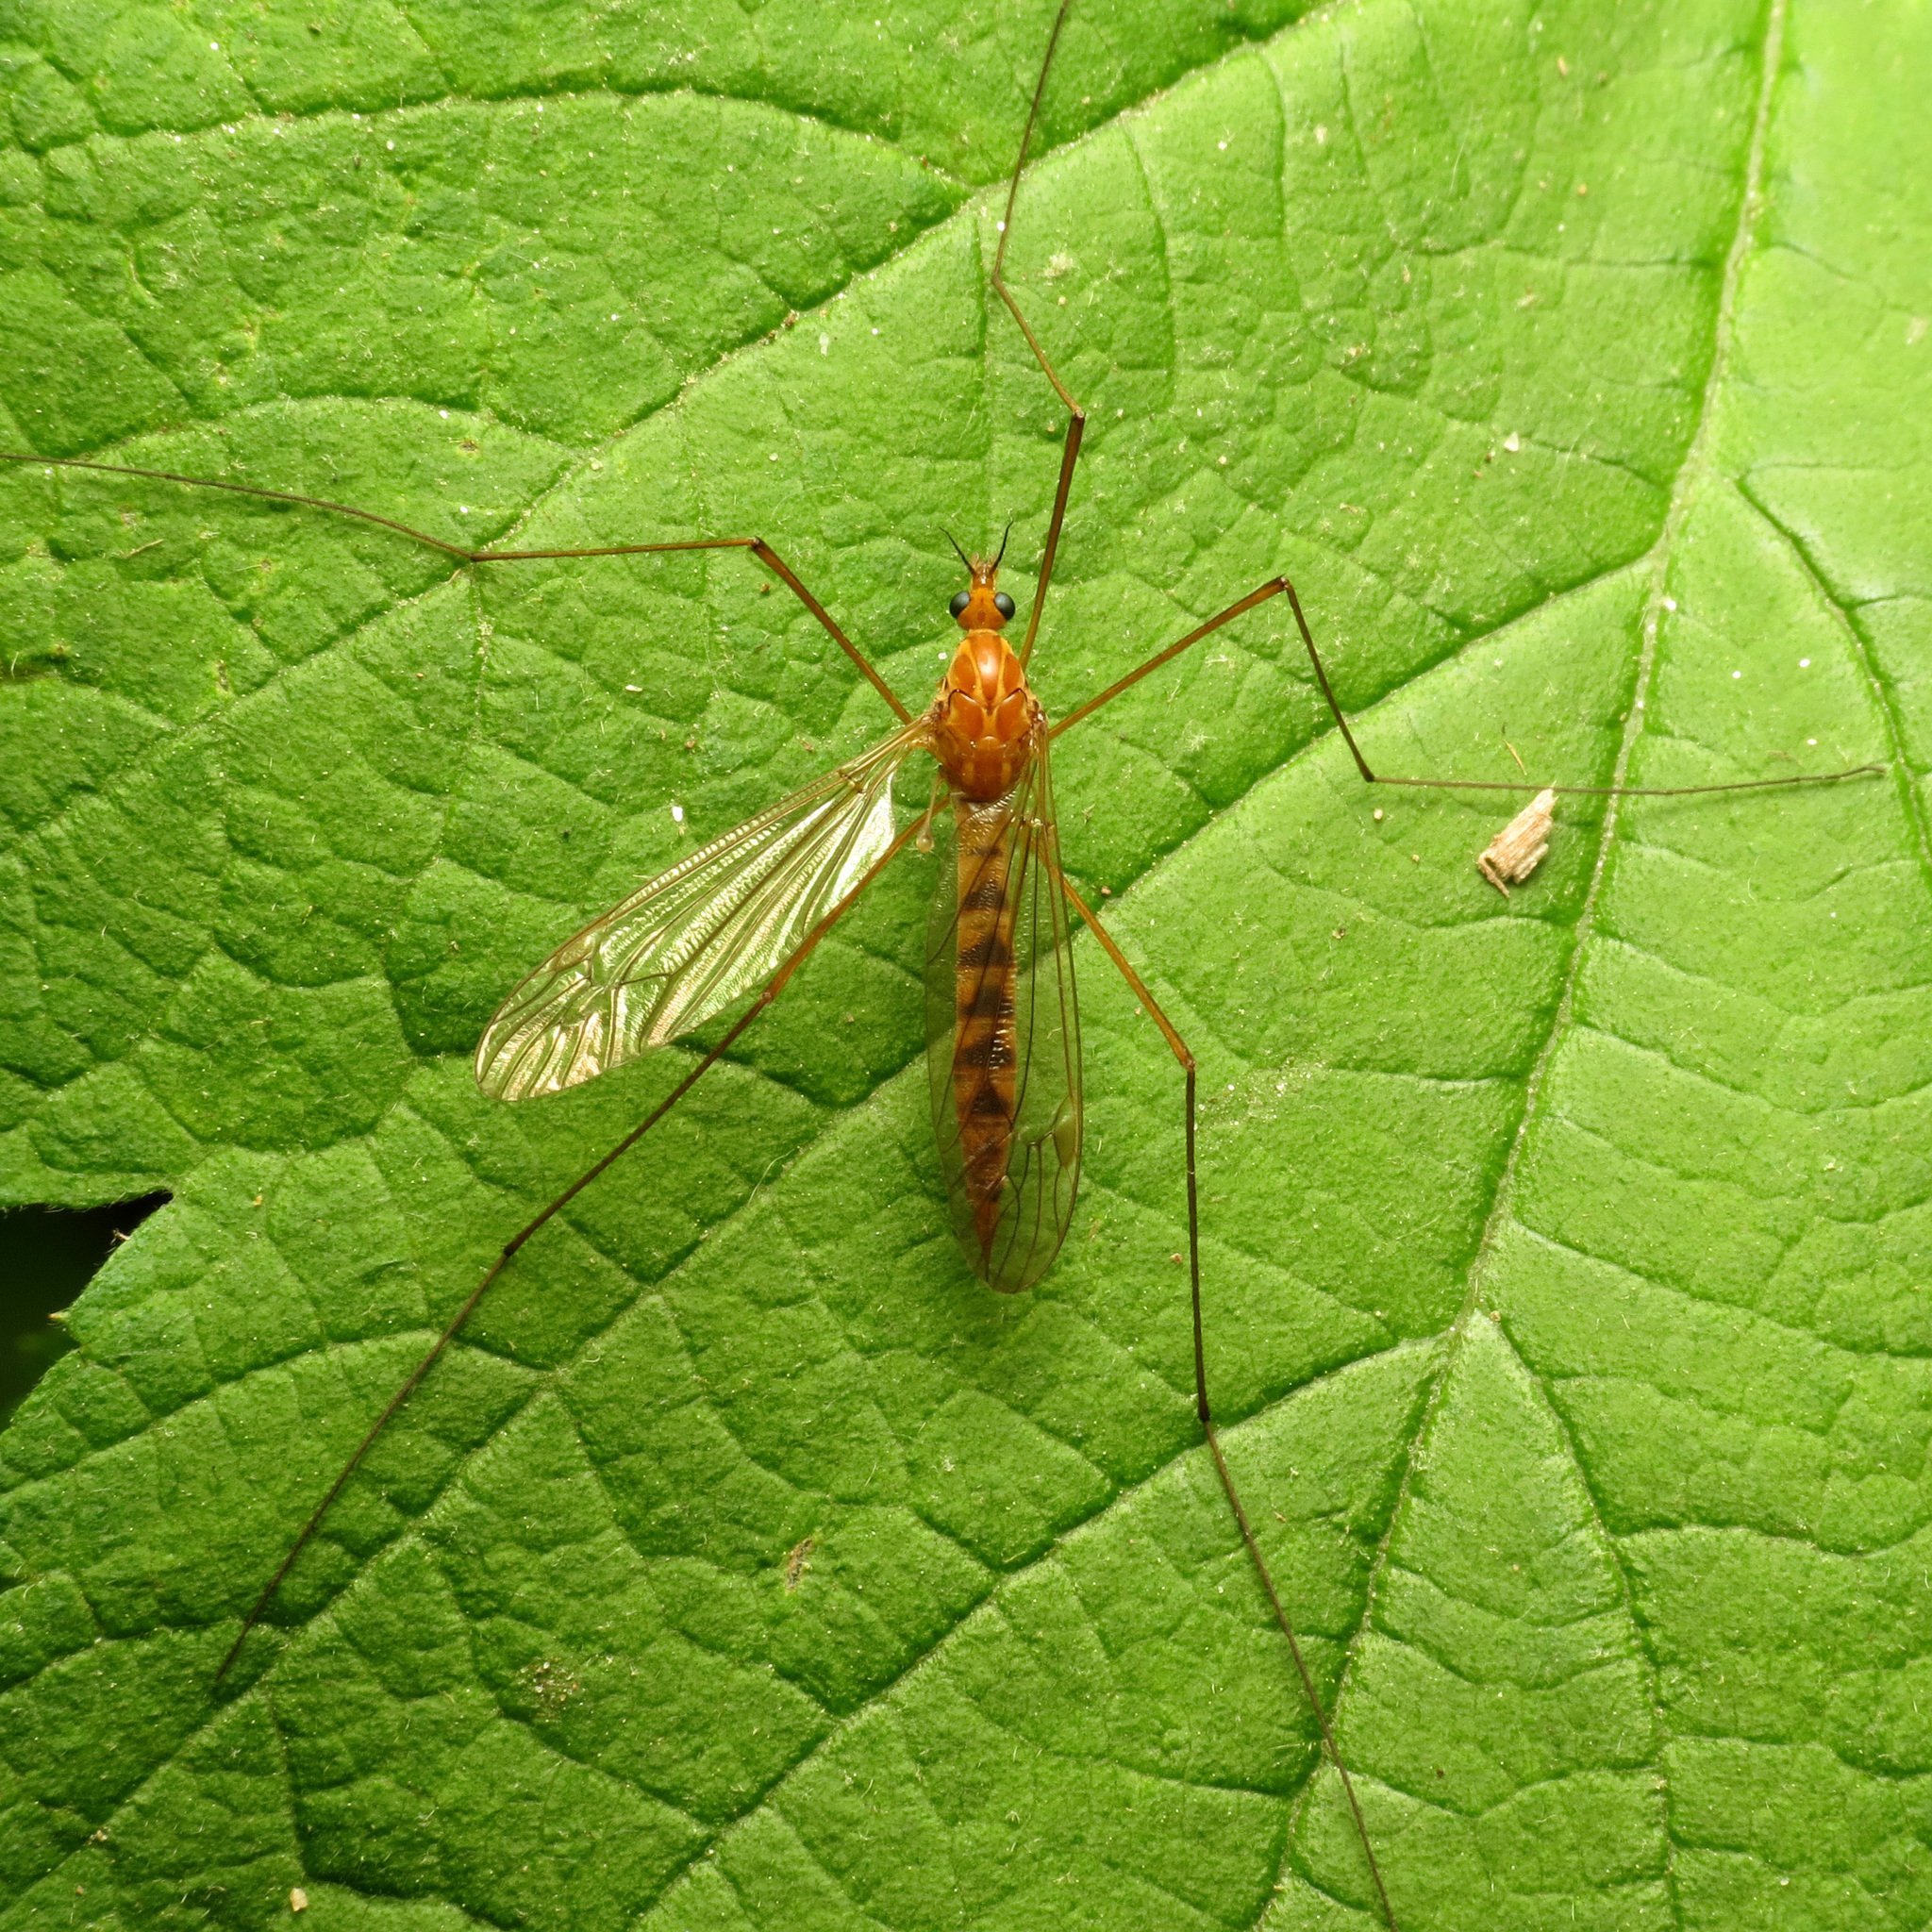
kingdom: Animalia
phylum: Arthropoda
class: Insecta
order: Diptera
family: Tipulidae
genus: Nephrotoma
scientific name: Nephrotoma ferruginea
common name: Ferruginous tiger crane fly
